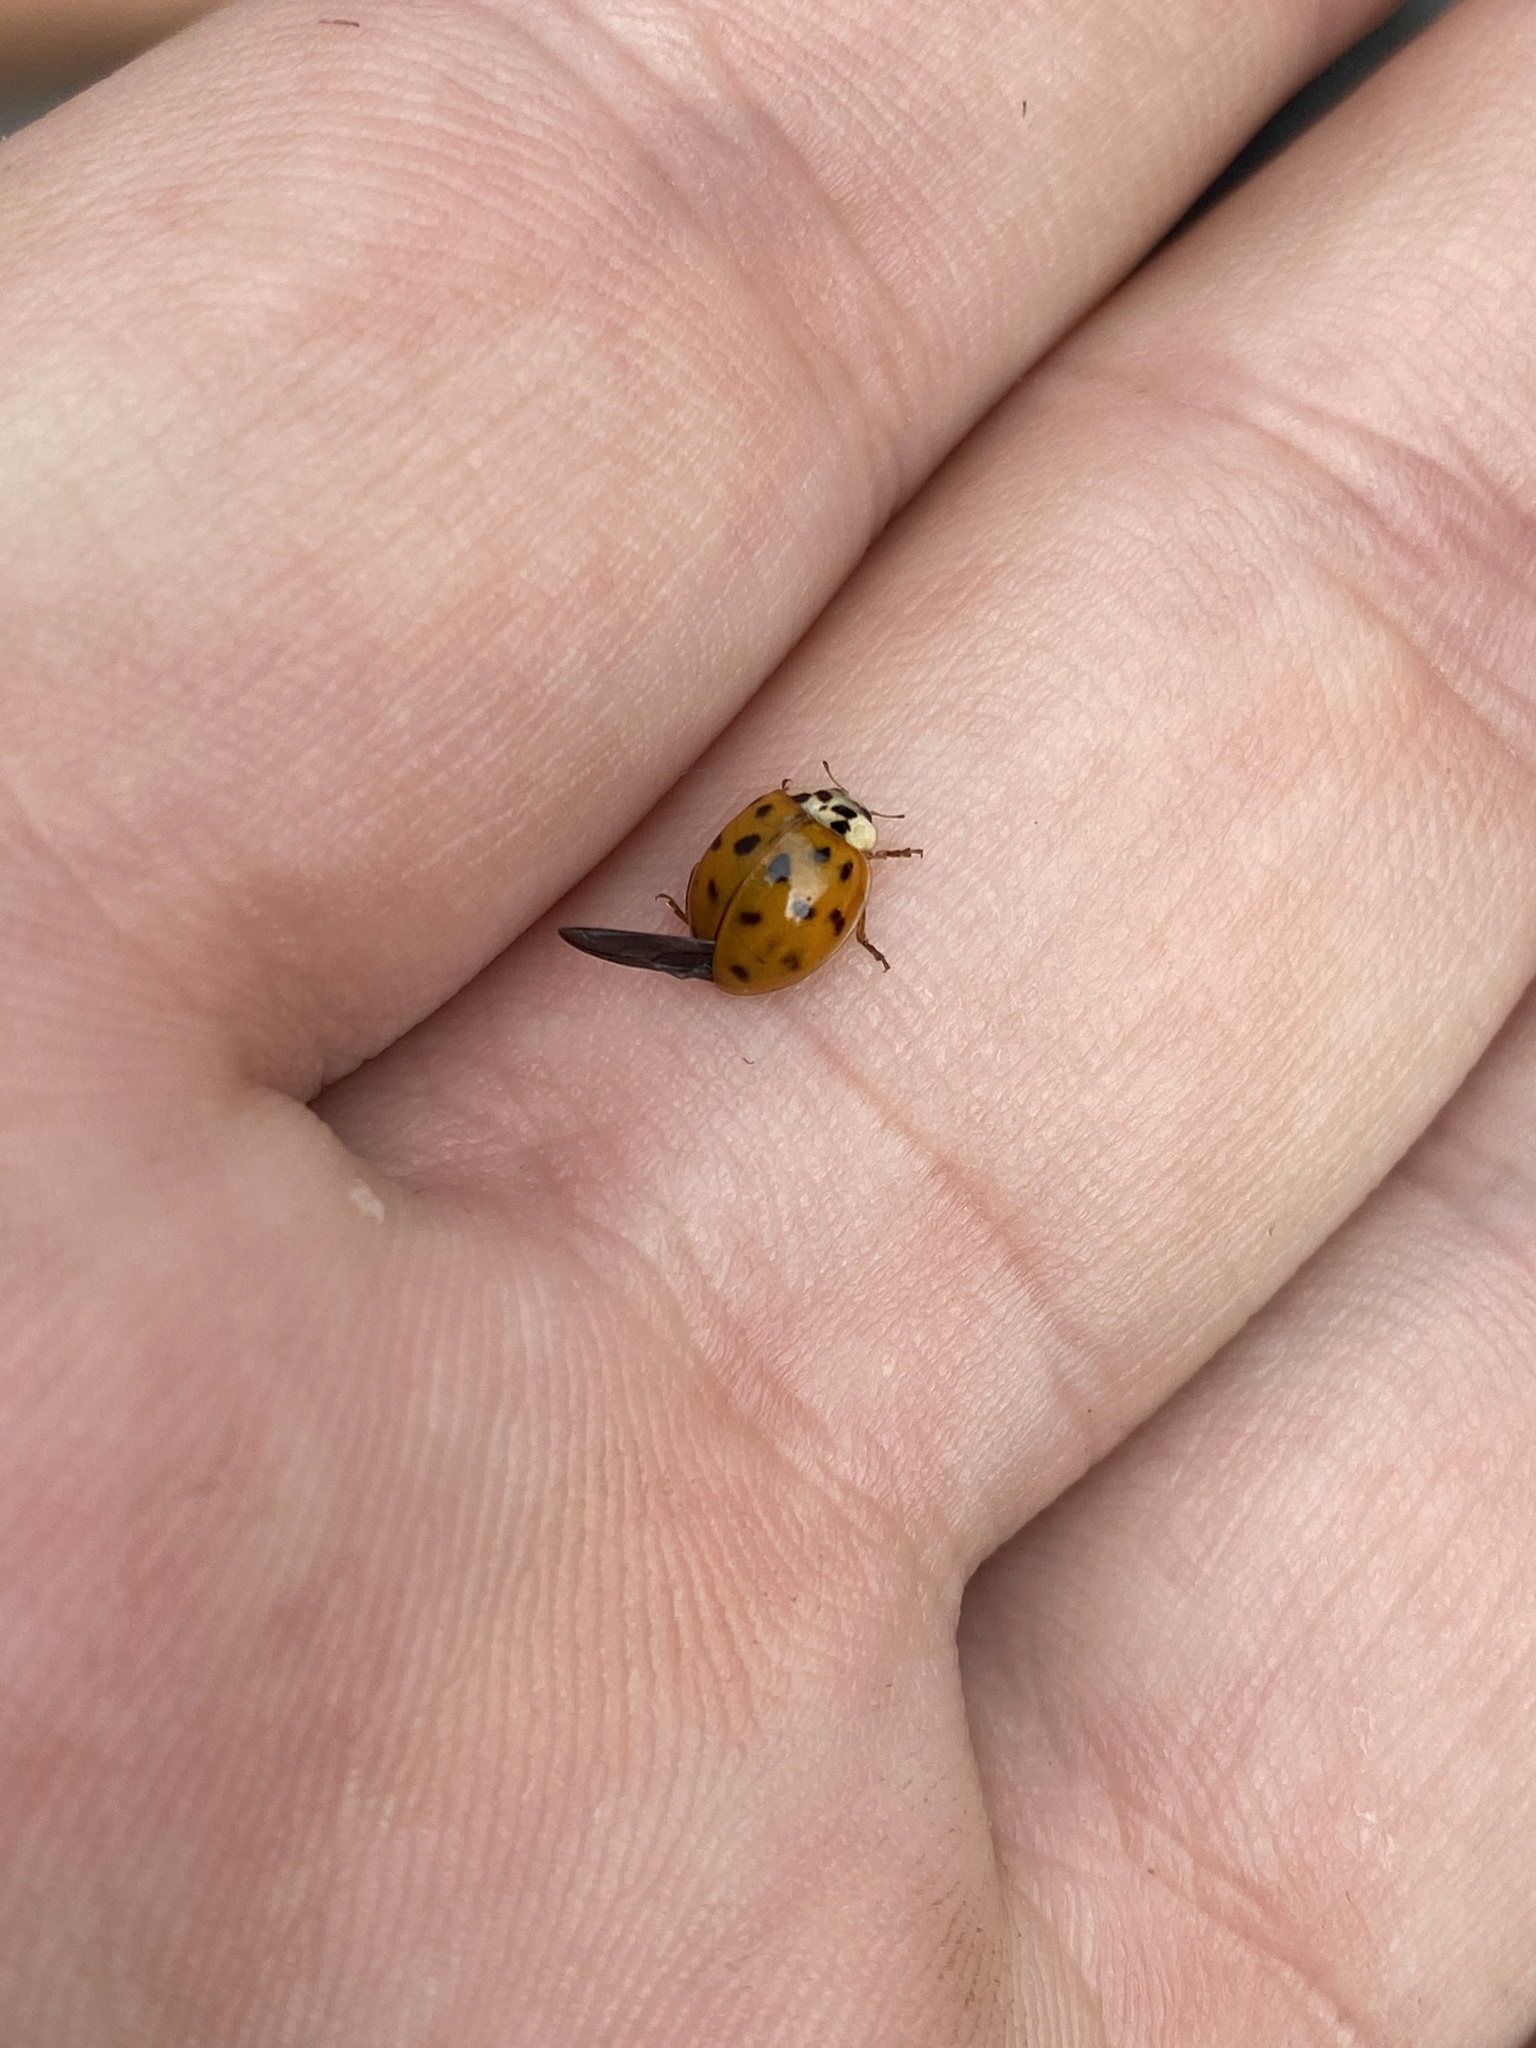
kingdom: Animalia
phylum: Arthropoda
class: Insecta
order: Coleoptera
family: Coccinellidae
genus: Harmonia
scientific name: Harmonia axyridis
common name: Harlequin ladybird
